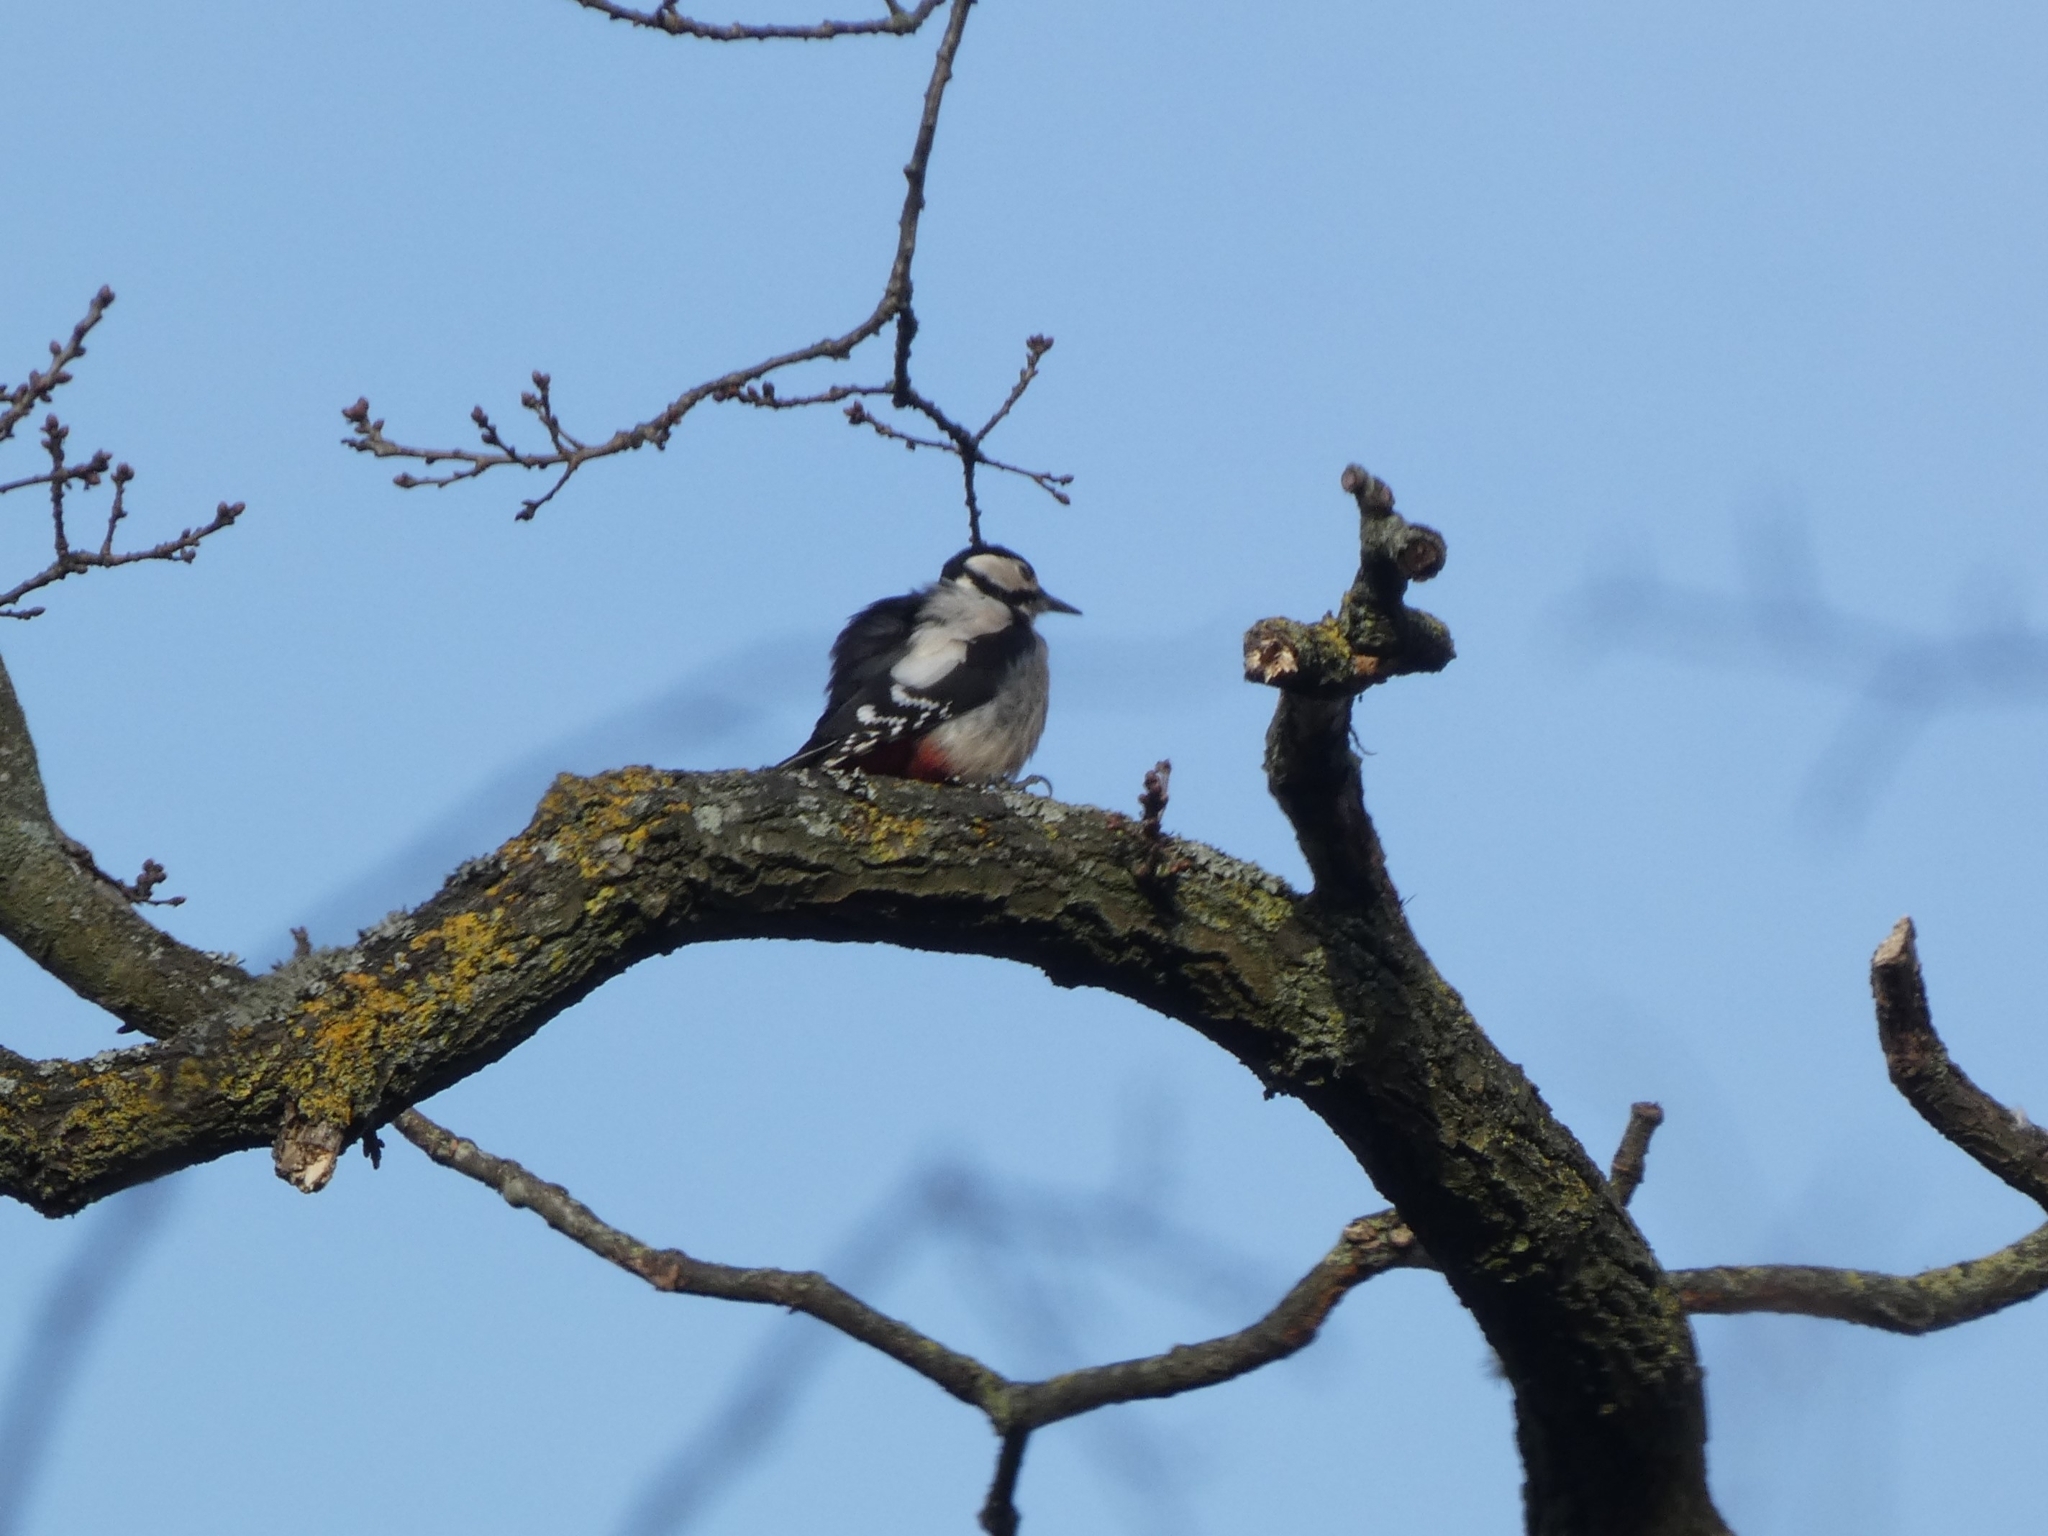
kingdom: Animalia
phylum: Chordata
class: Aves
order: Piciformes
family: Picidae
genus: Dendrocopos
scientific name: Dendrocopos major
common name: Great spotted woodpecker
